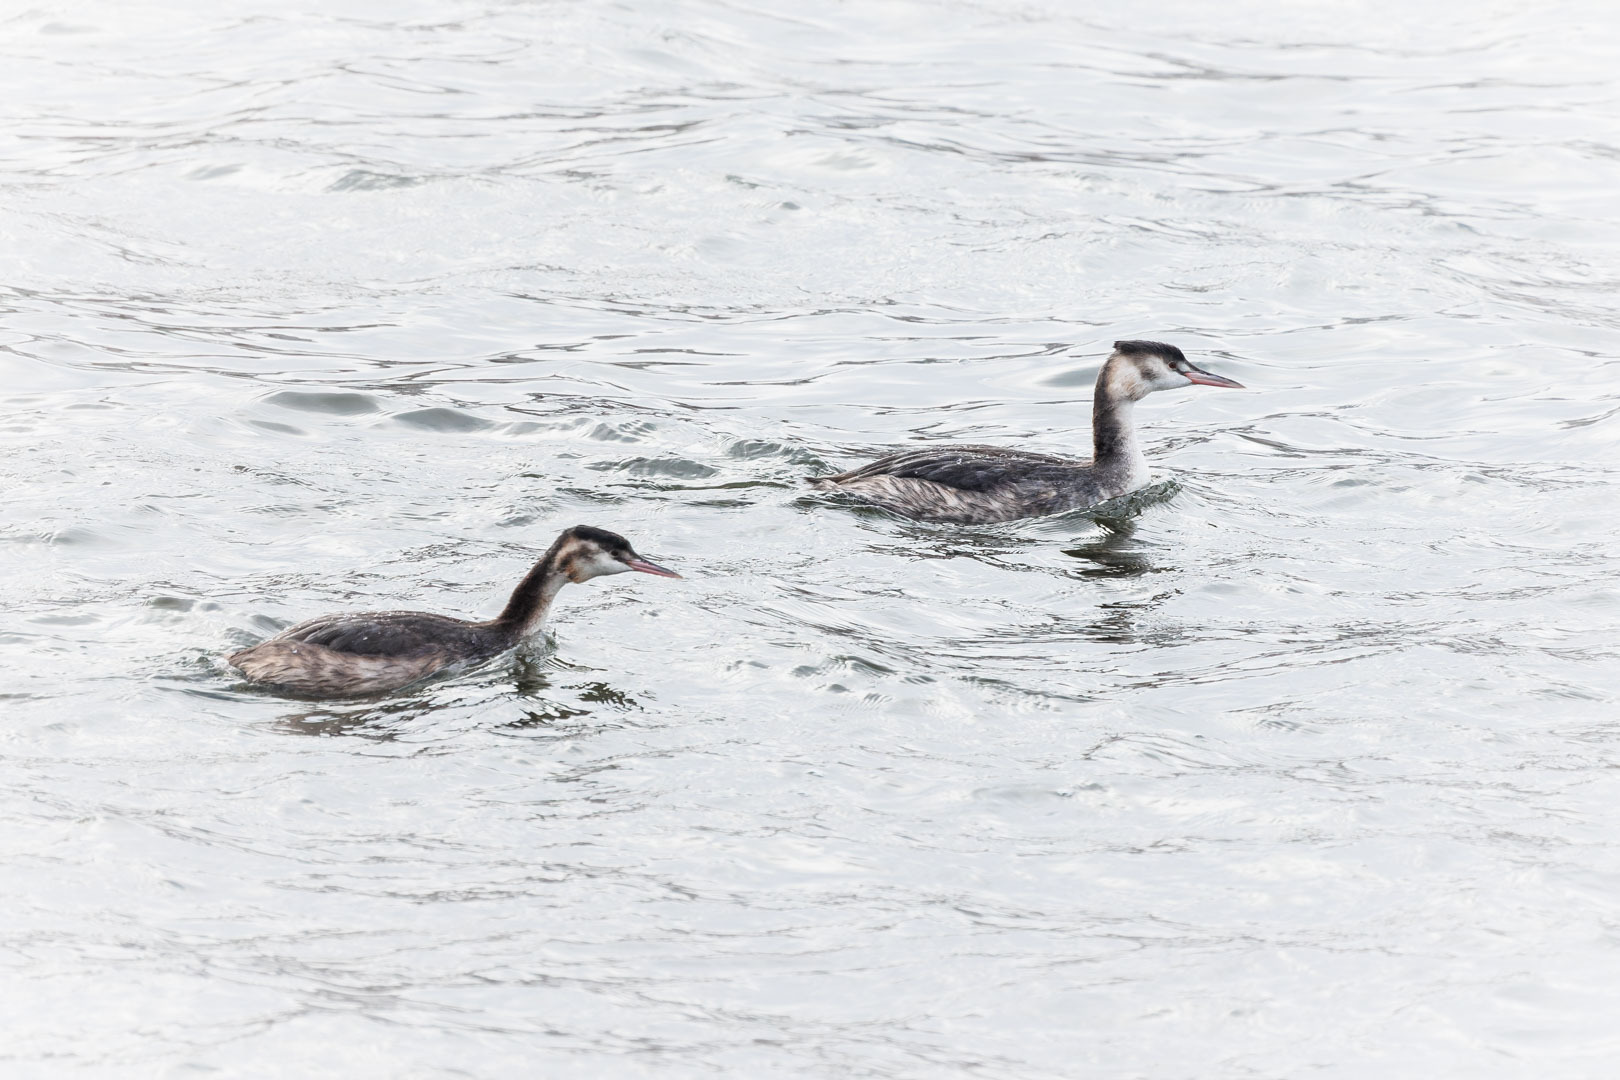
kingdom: Animalia
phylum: Chordata
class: Aves
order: Podicipediformes
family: Podicipedidae
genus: Podiceps
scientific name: Podiceps cristatus
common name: Great crested grebe
